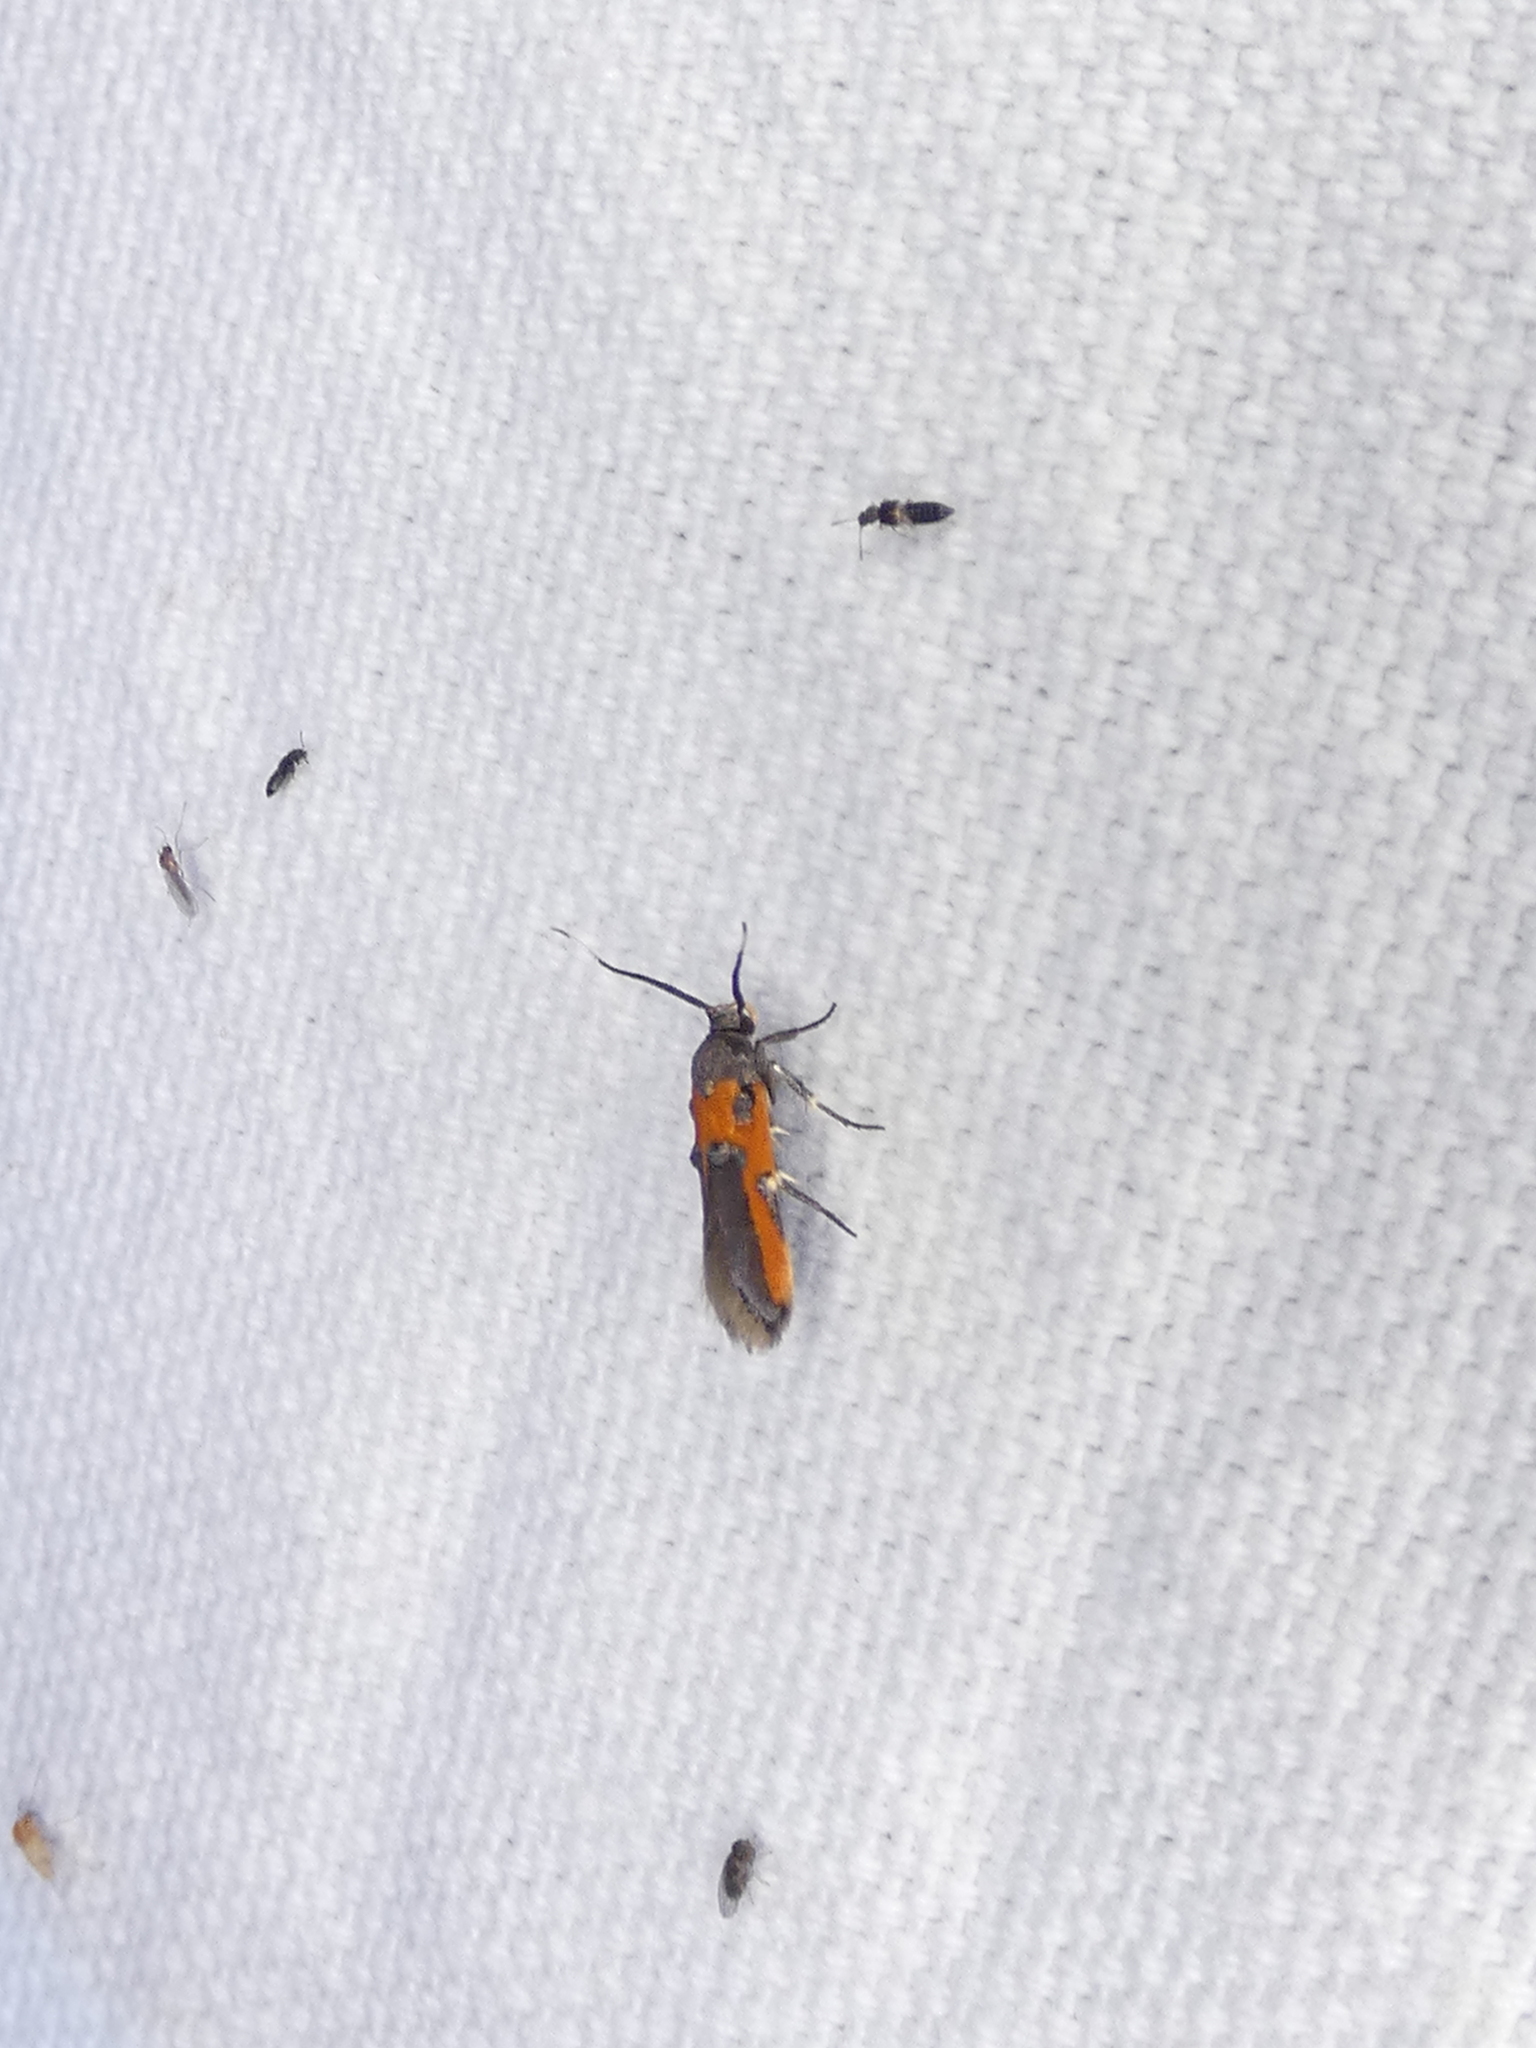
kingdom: Animalia
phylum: Arthropoda
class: Insecta
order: Lepidoptera
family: Cosmopterigidae
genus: Euclemensia
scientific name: Euclemensia bassettella
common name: Kermes scale moth
